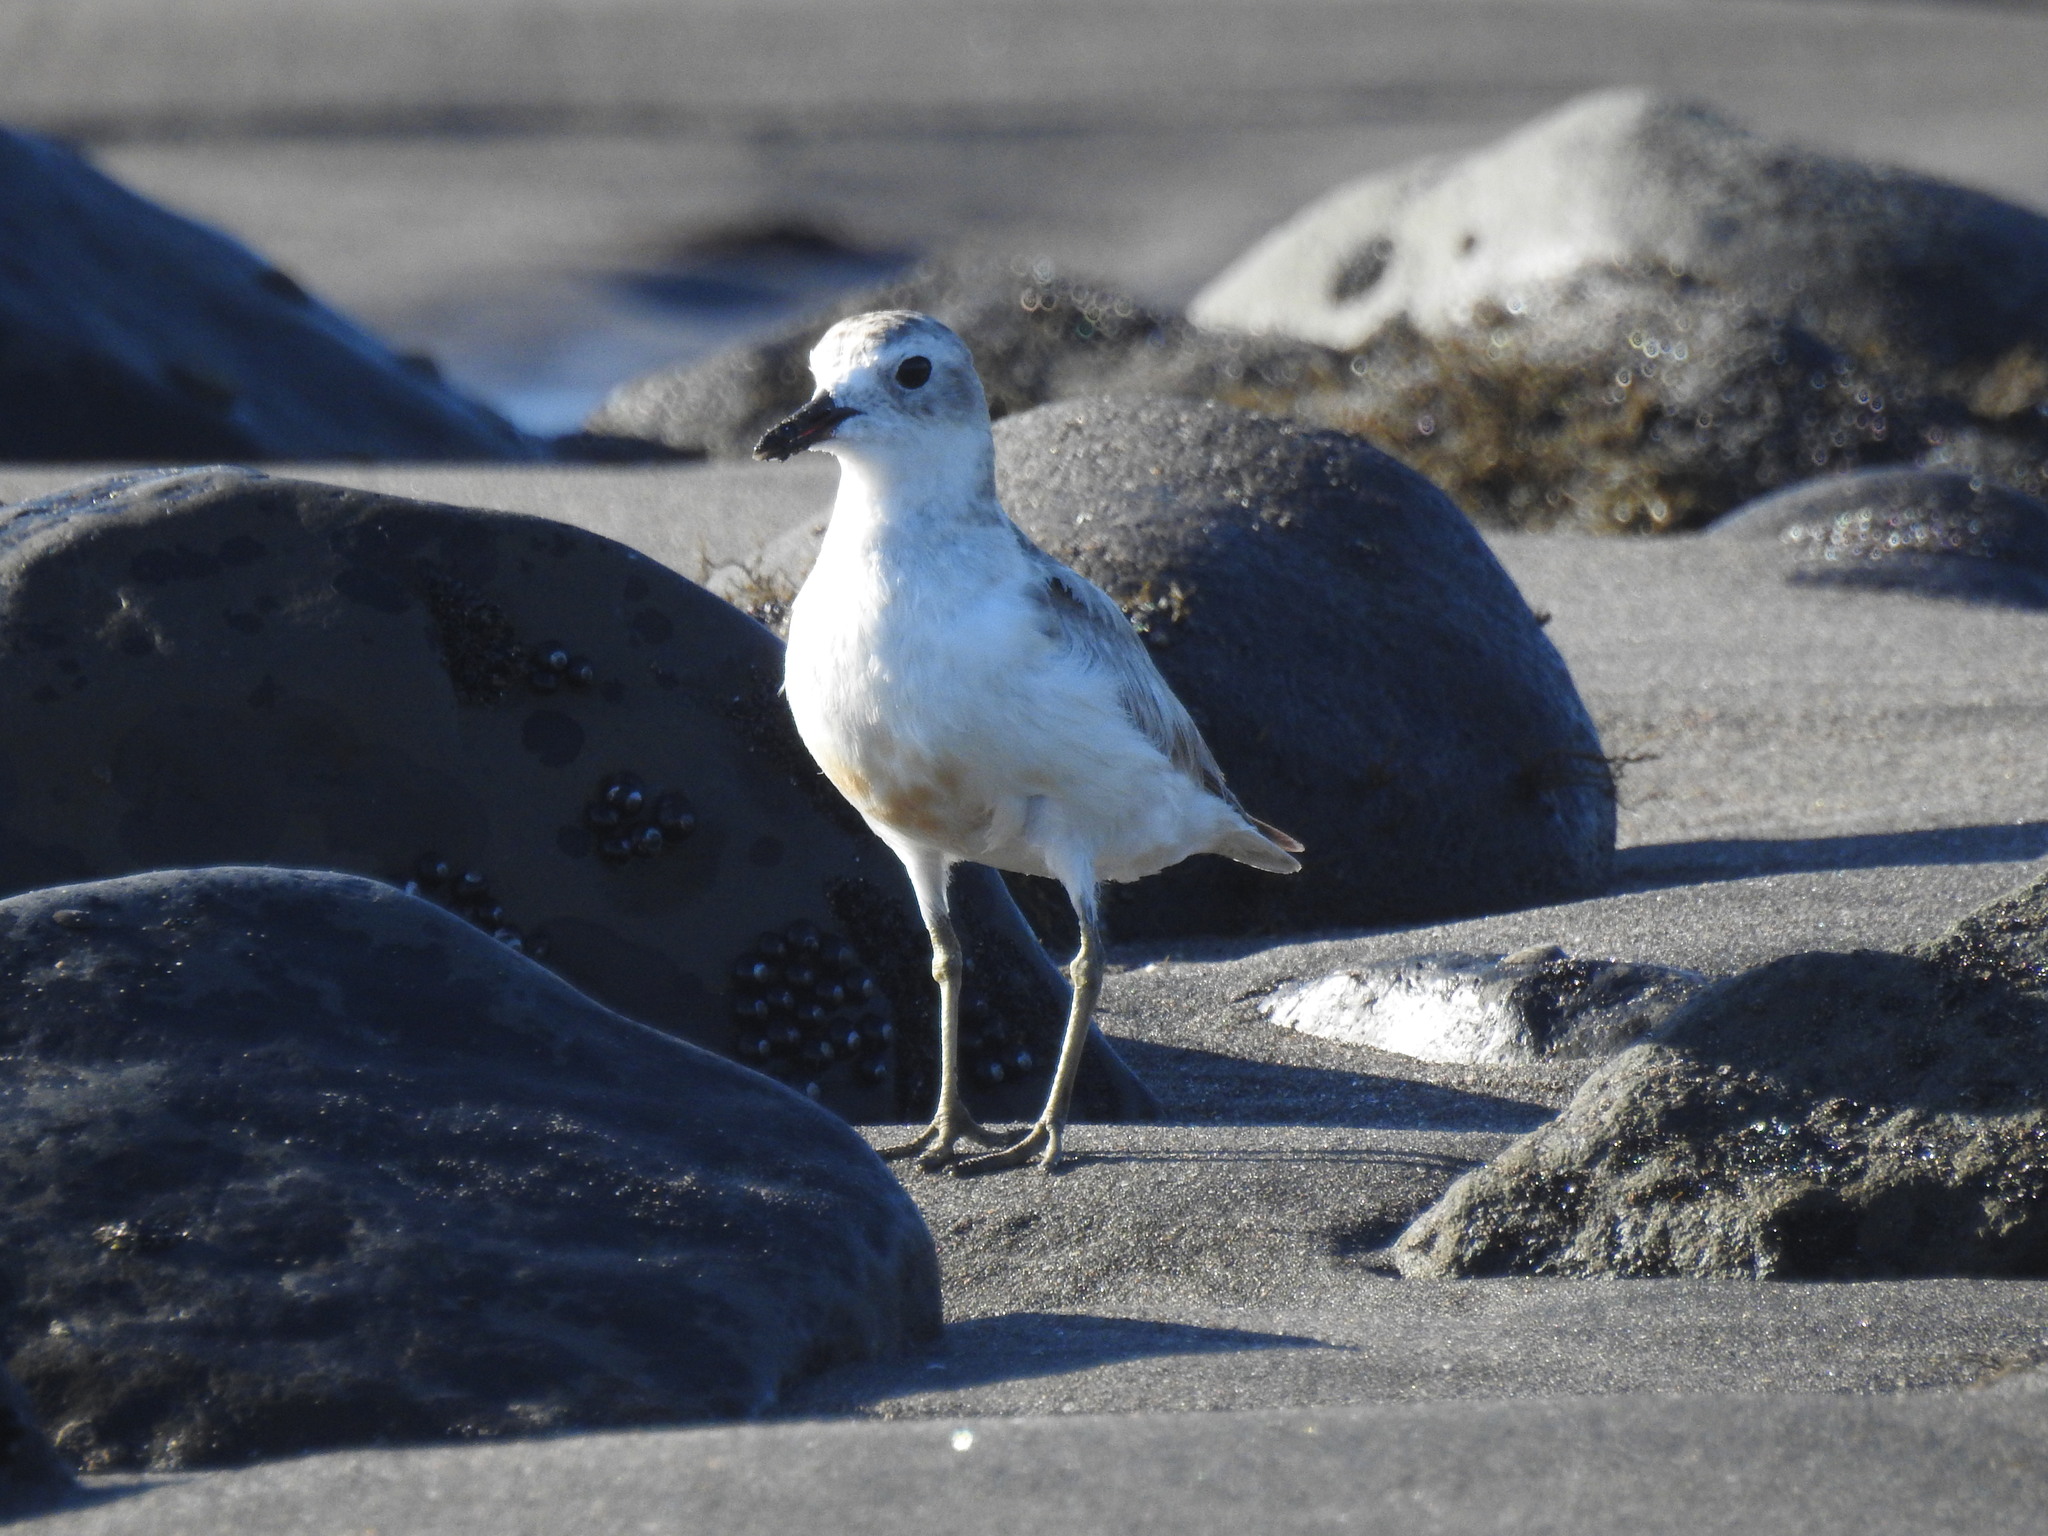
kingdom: Animalia
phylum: Chordata
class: Aves
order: Charadriiformes
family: Charadriidae
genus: Anarhynchus
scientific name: Anarhynchus
